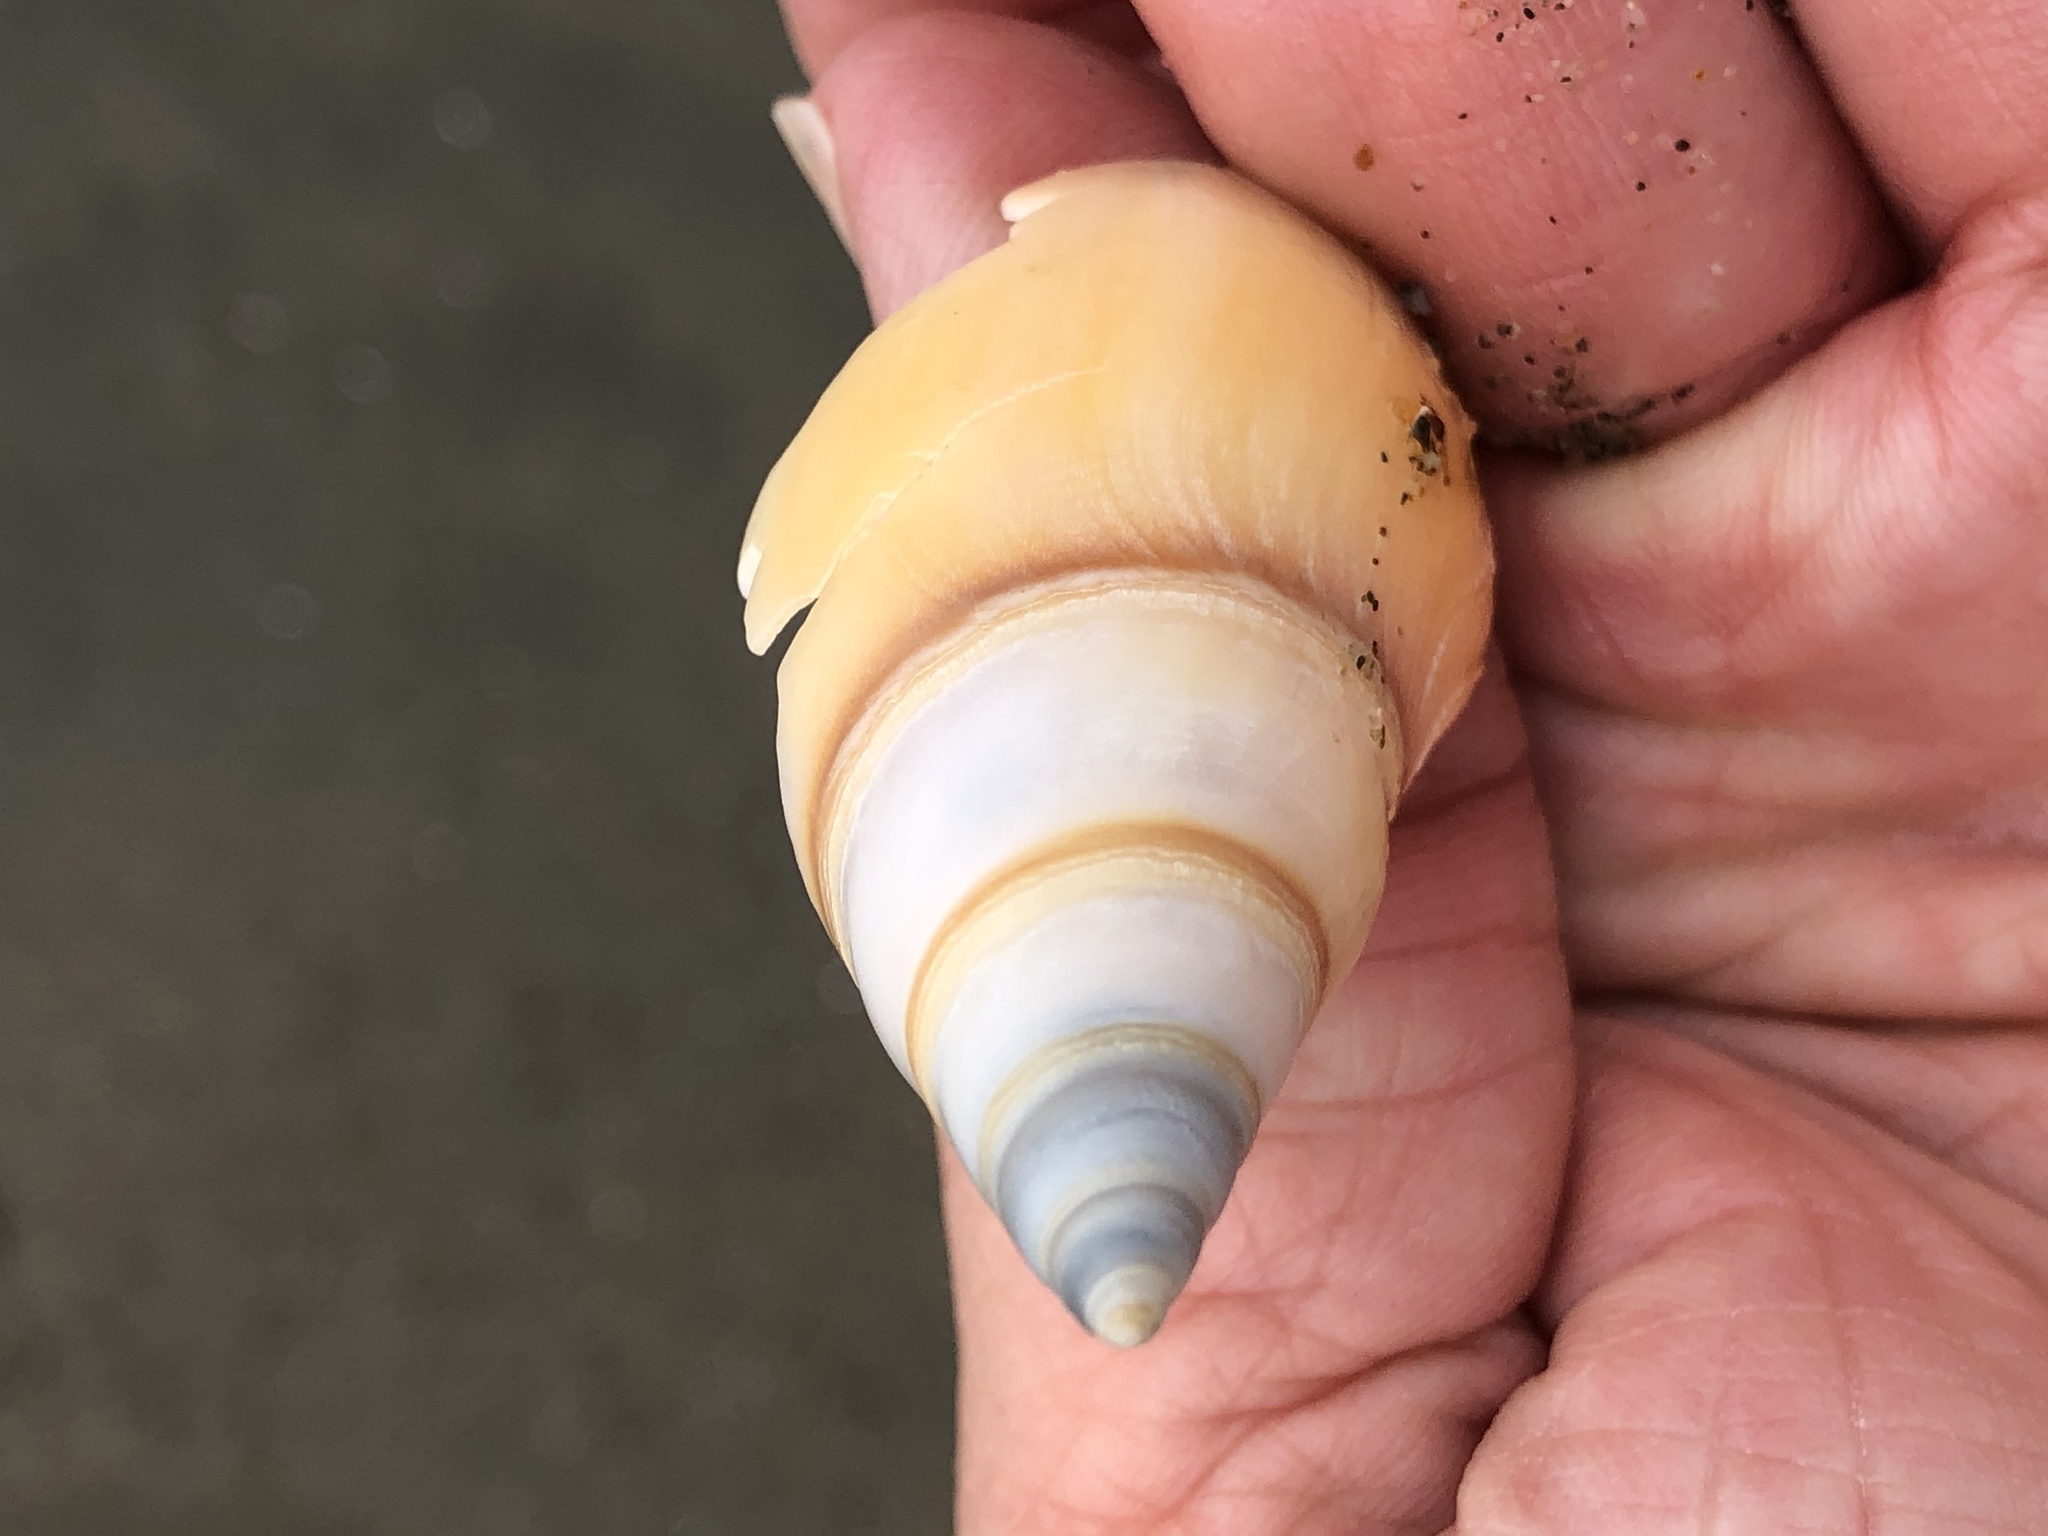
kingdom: Animalia
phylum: Mollusca
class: Gastropoda
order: Neogastropoda
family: Pseudomelatomidae
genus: Megasurcula
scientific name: Megasurcula carpenteriana
